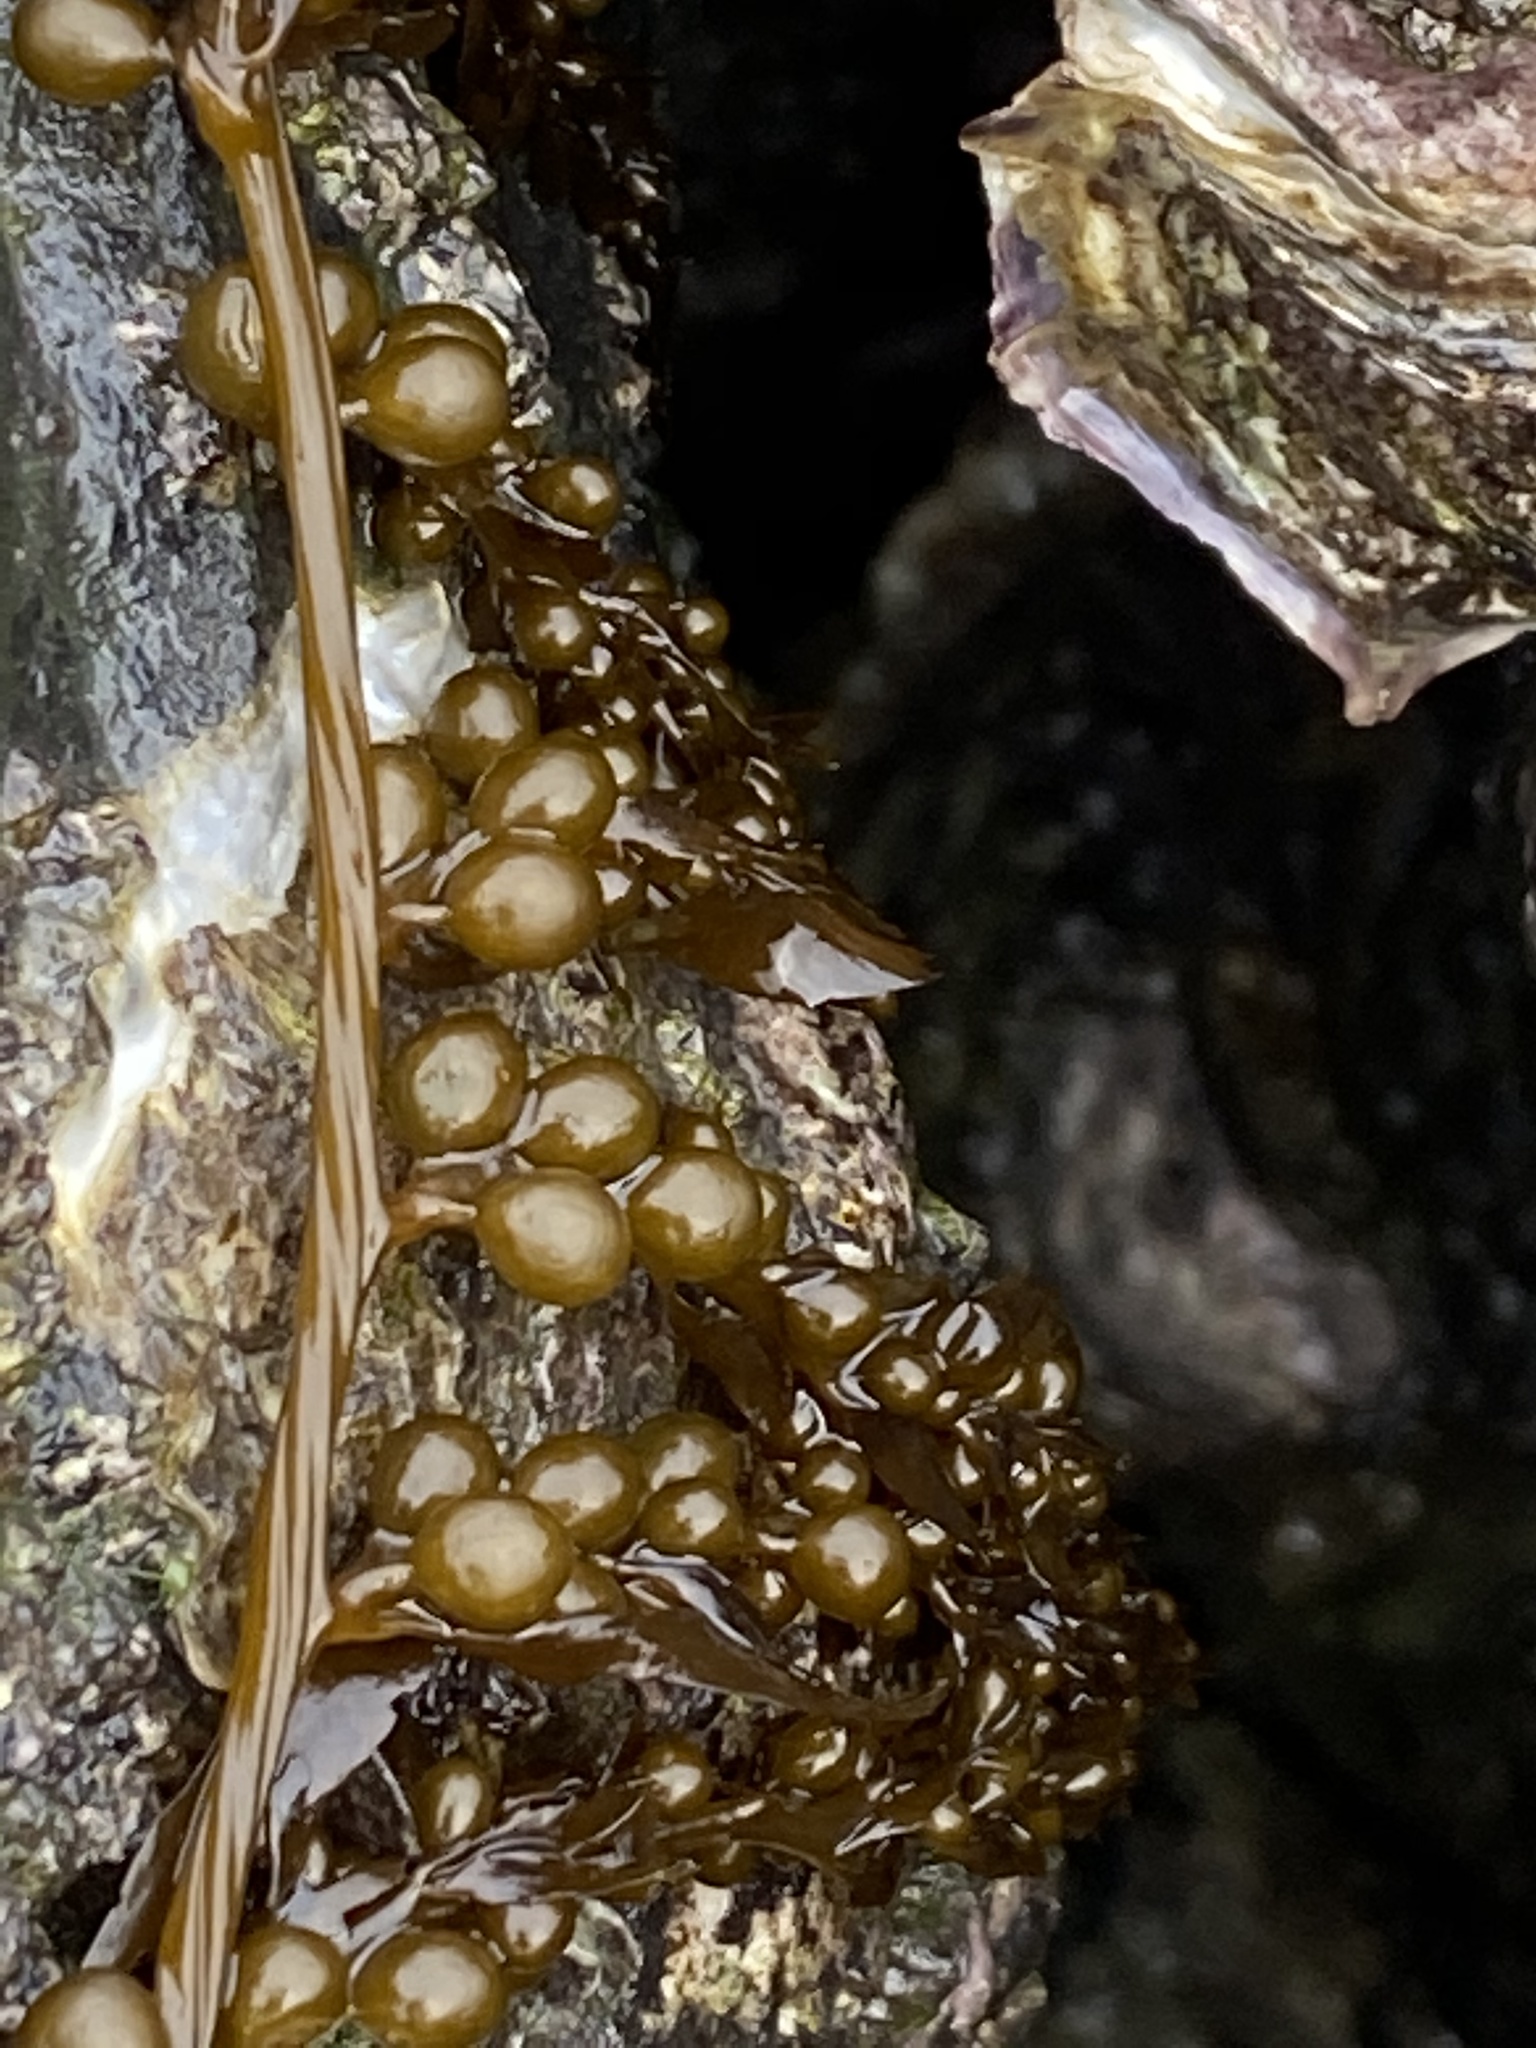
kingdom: Chromista
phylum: Ochrophyta
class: Phaeophyceae
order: Fucales
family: Sargassaceae
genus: Sargassum
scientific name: Sargassum muticum
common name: Japweed
